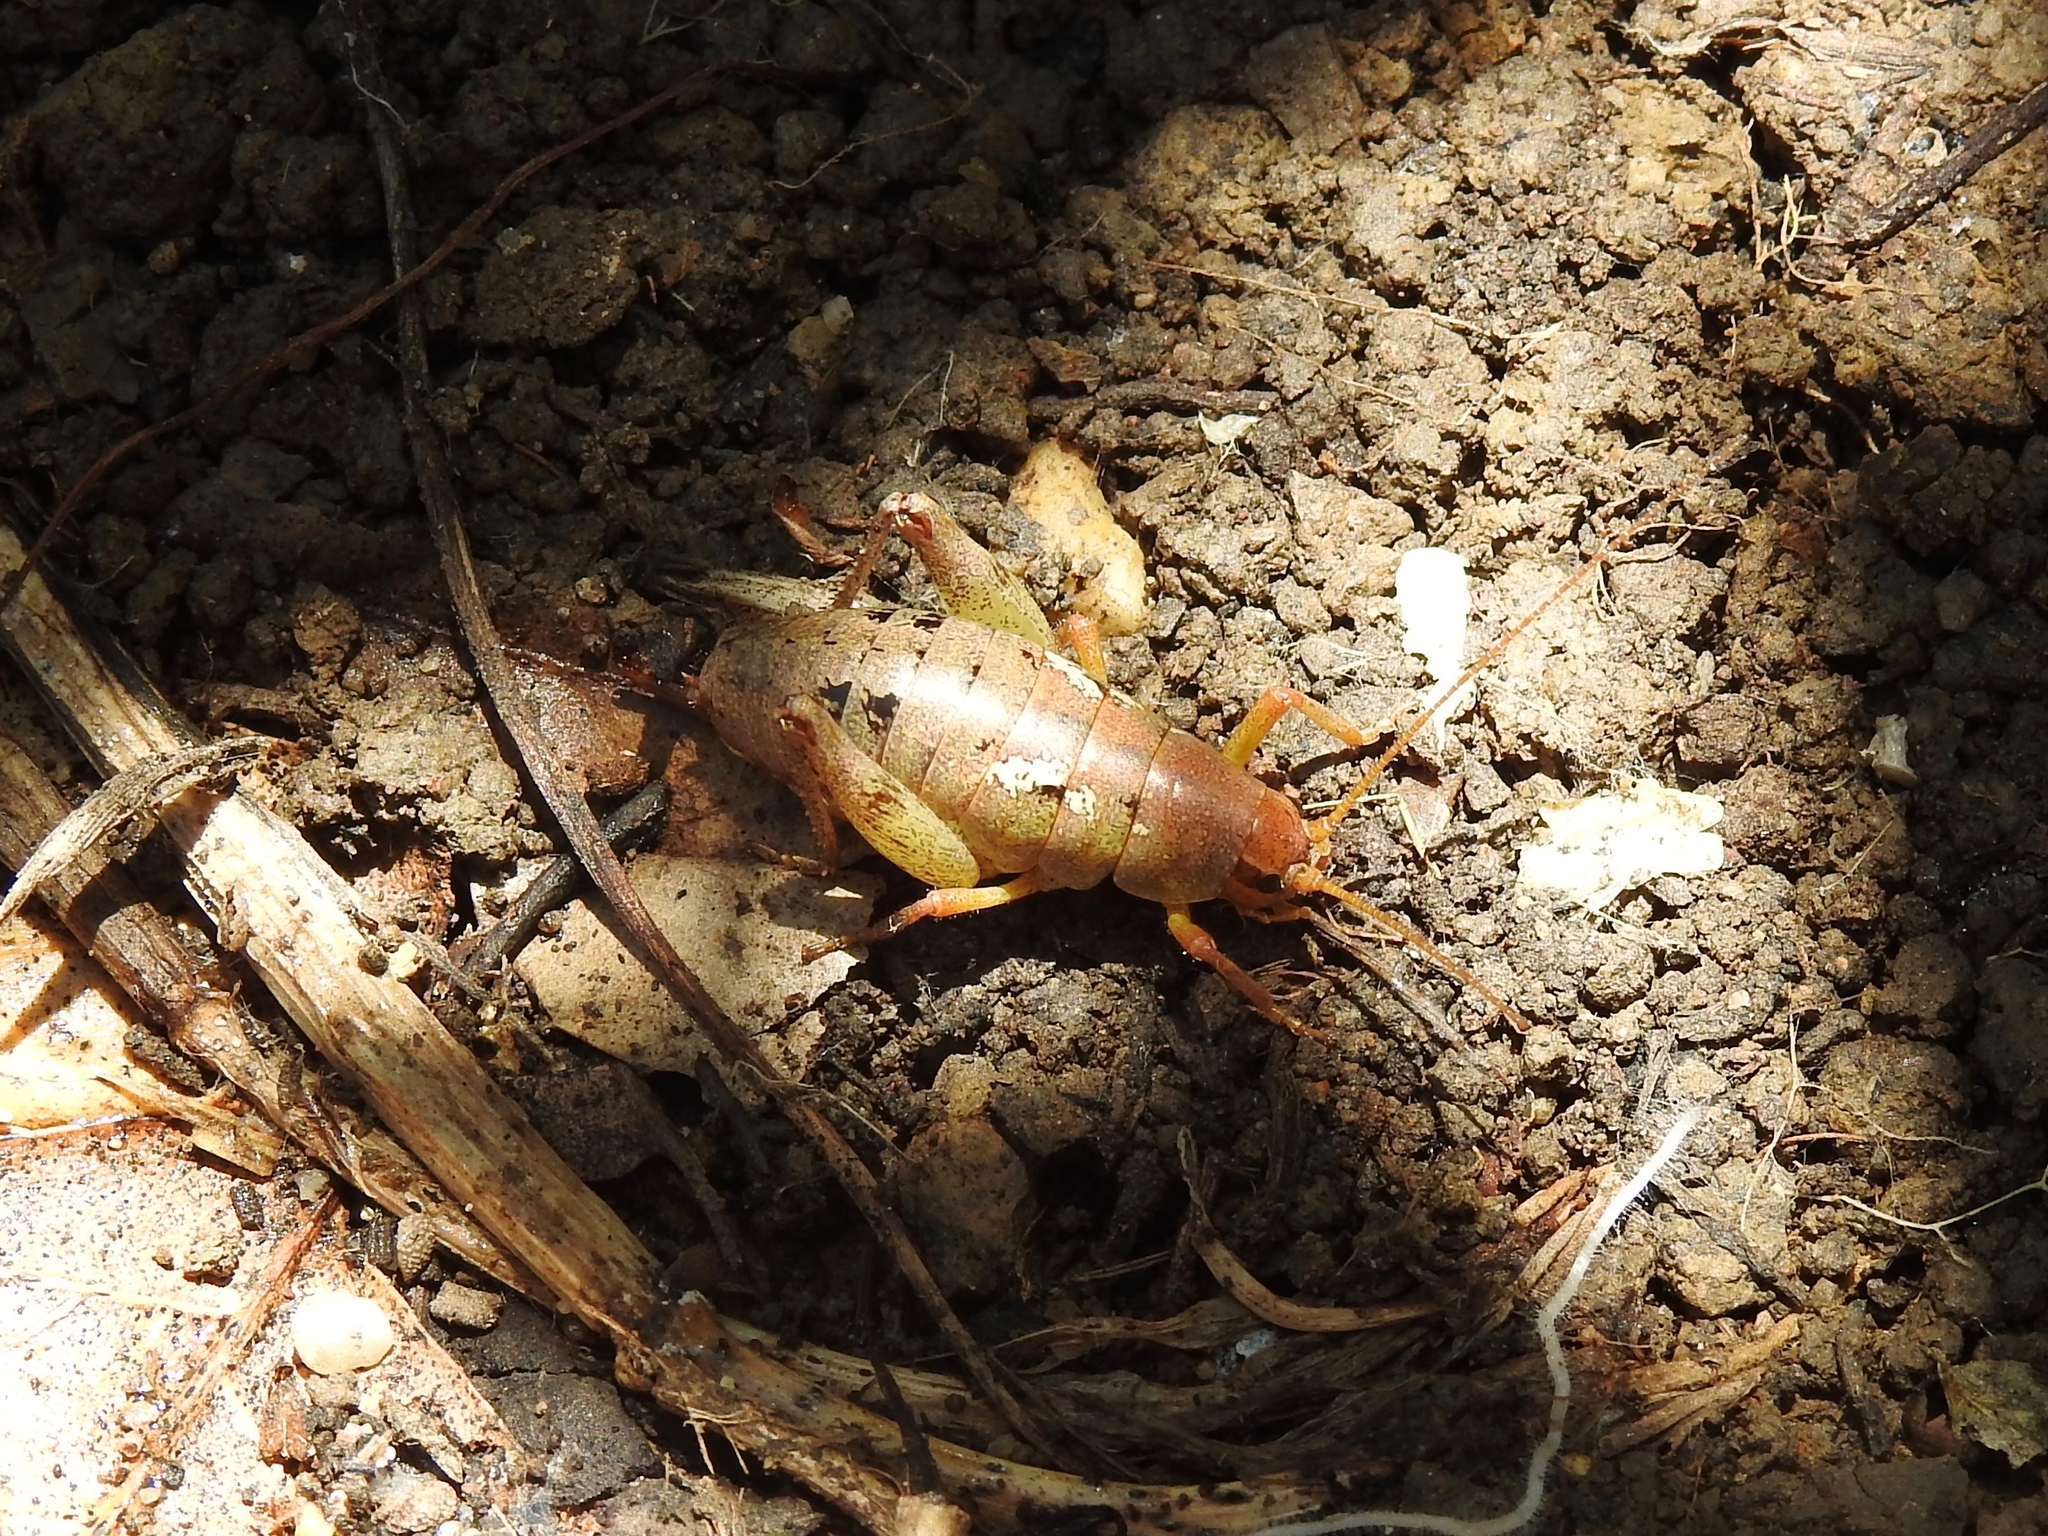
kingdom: Animalia
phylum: Arthropoda
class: Insecta
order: Orthoptera
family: Rhaphidophoridae
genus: Gammarotettix
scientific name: Gammarotettix genitalis
